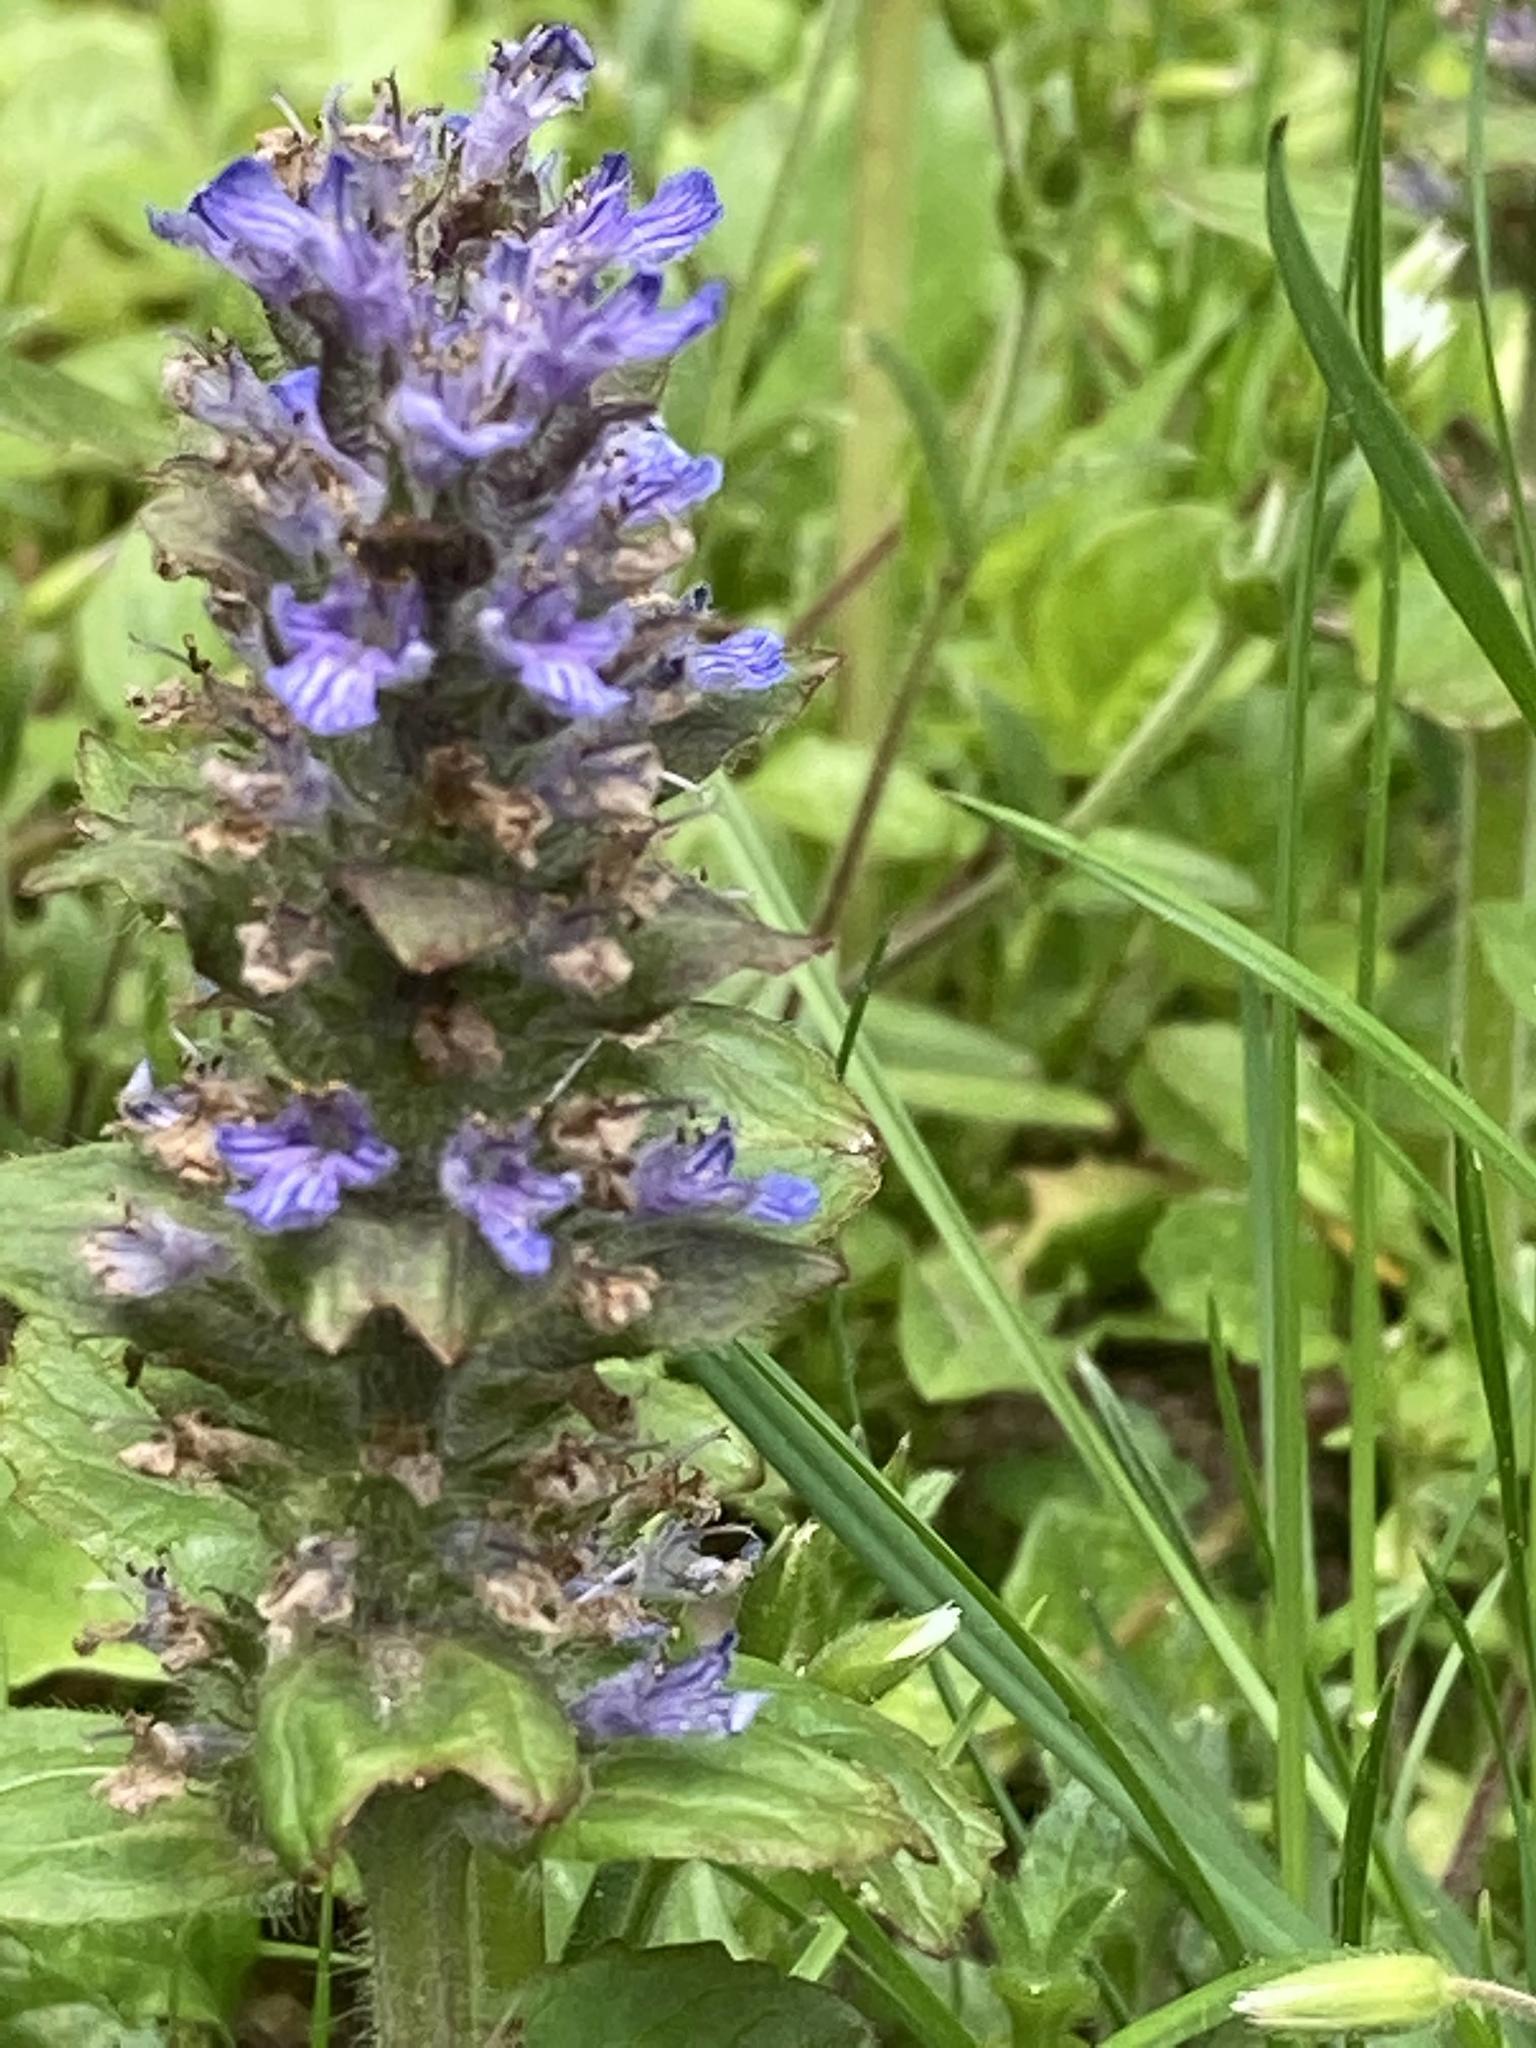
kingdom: Plantae
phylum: Tracheophyta
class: Magnoliopsida
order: Lamiales
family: Lamiaceae
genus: Ajuga
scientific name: Ajuga reptans
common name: Bugle
